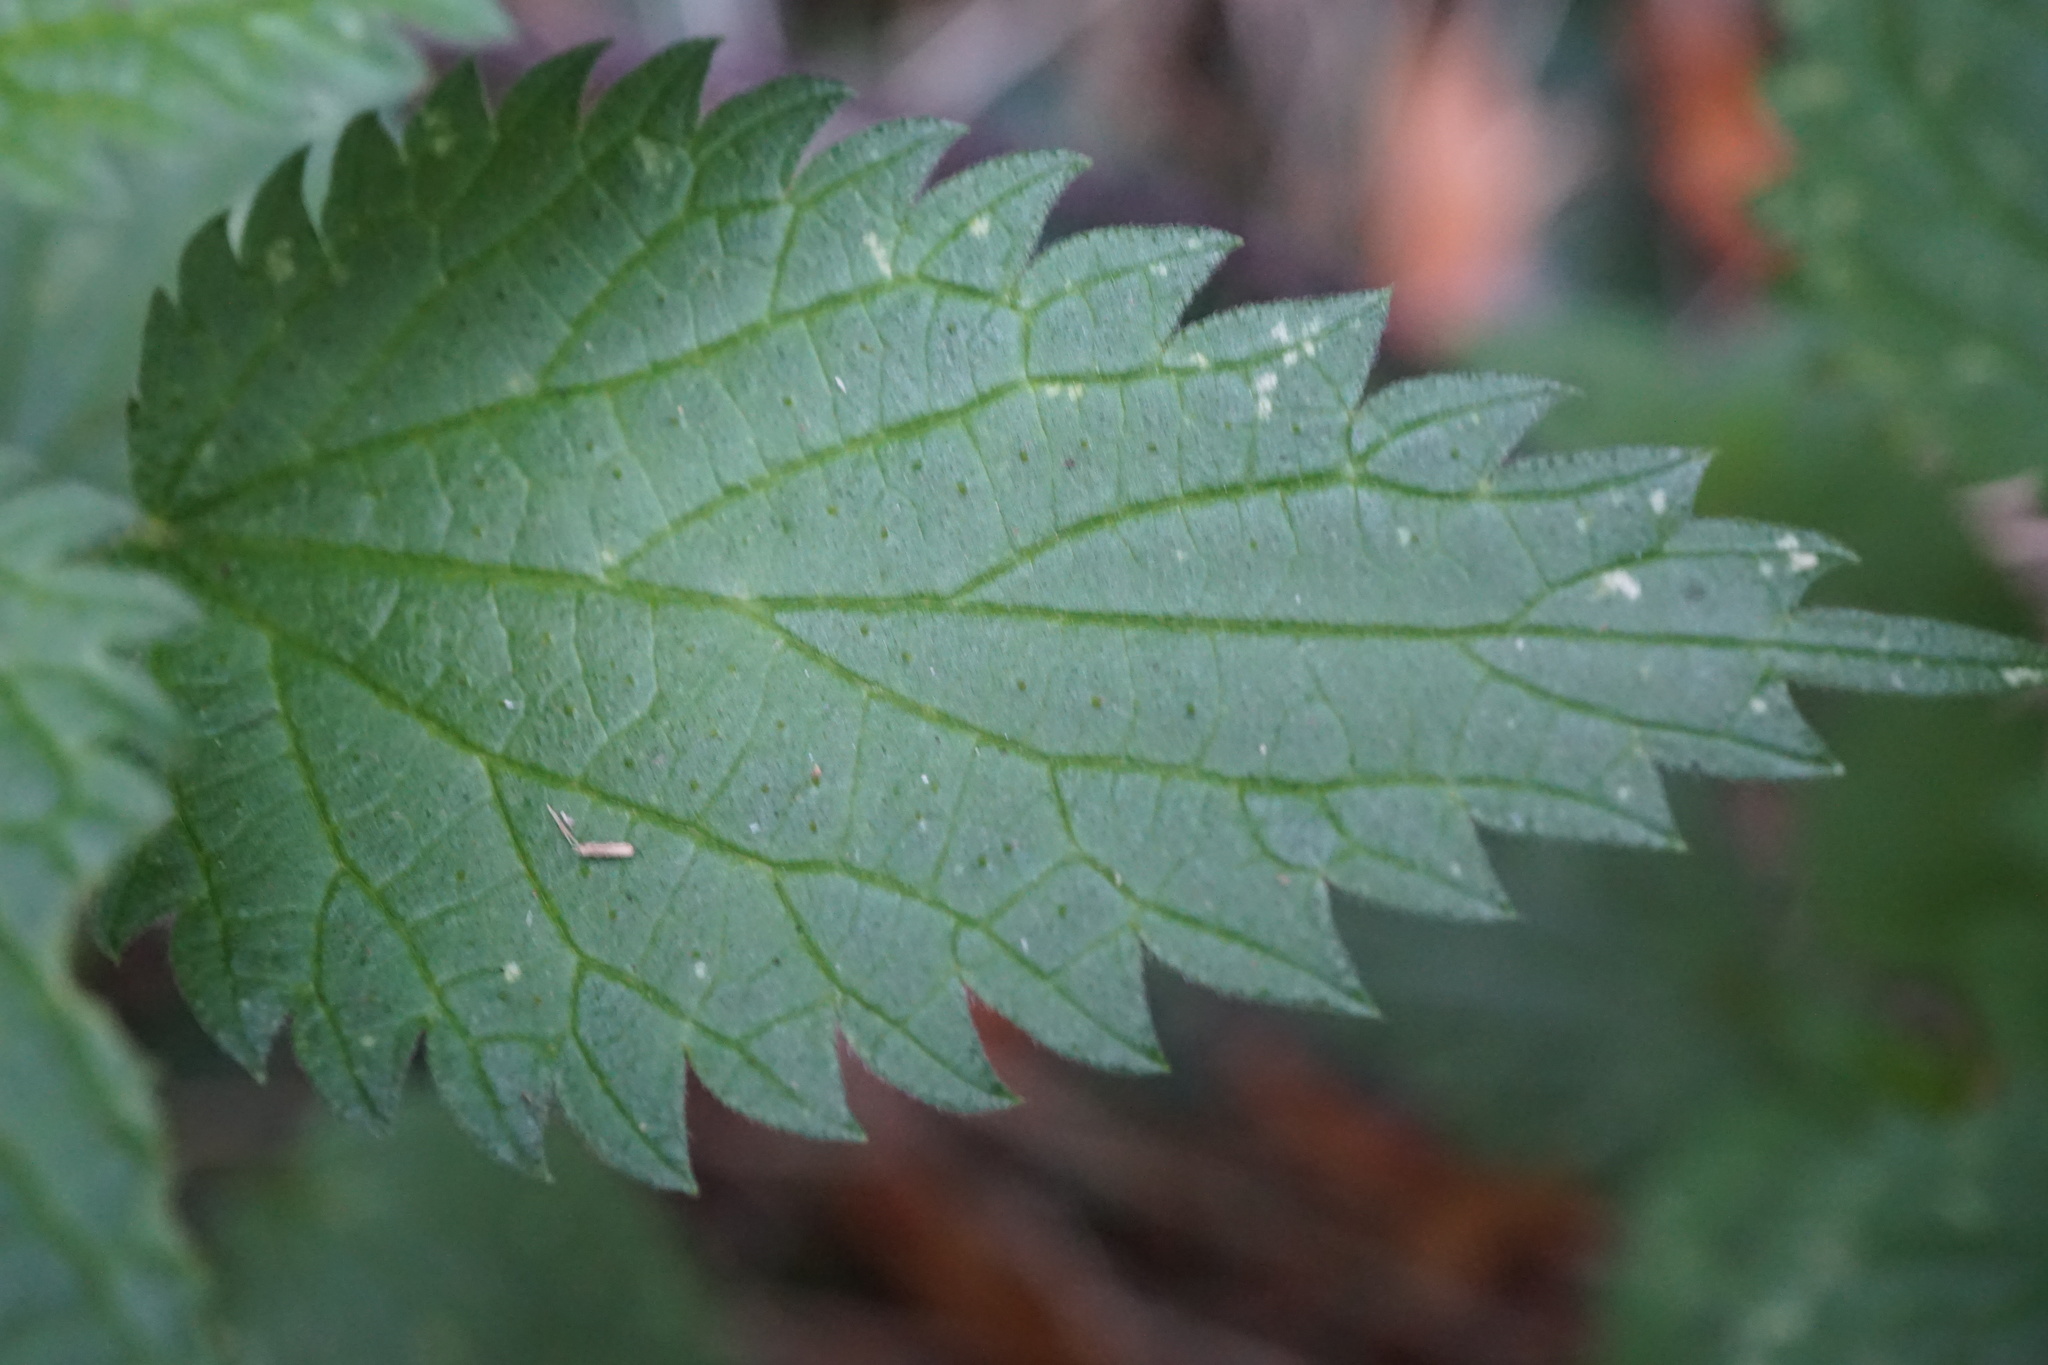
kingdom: Plantae
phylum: Tracheophyta
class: Magnoliopsida
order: Rosales
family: Urticaceae
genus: Urtica
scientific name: Urtica dioica
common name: Common nettle
